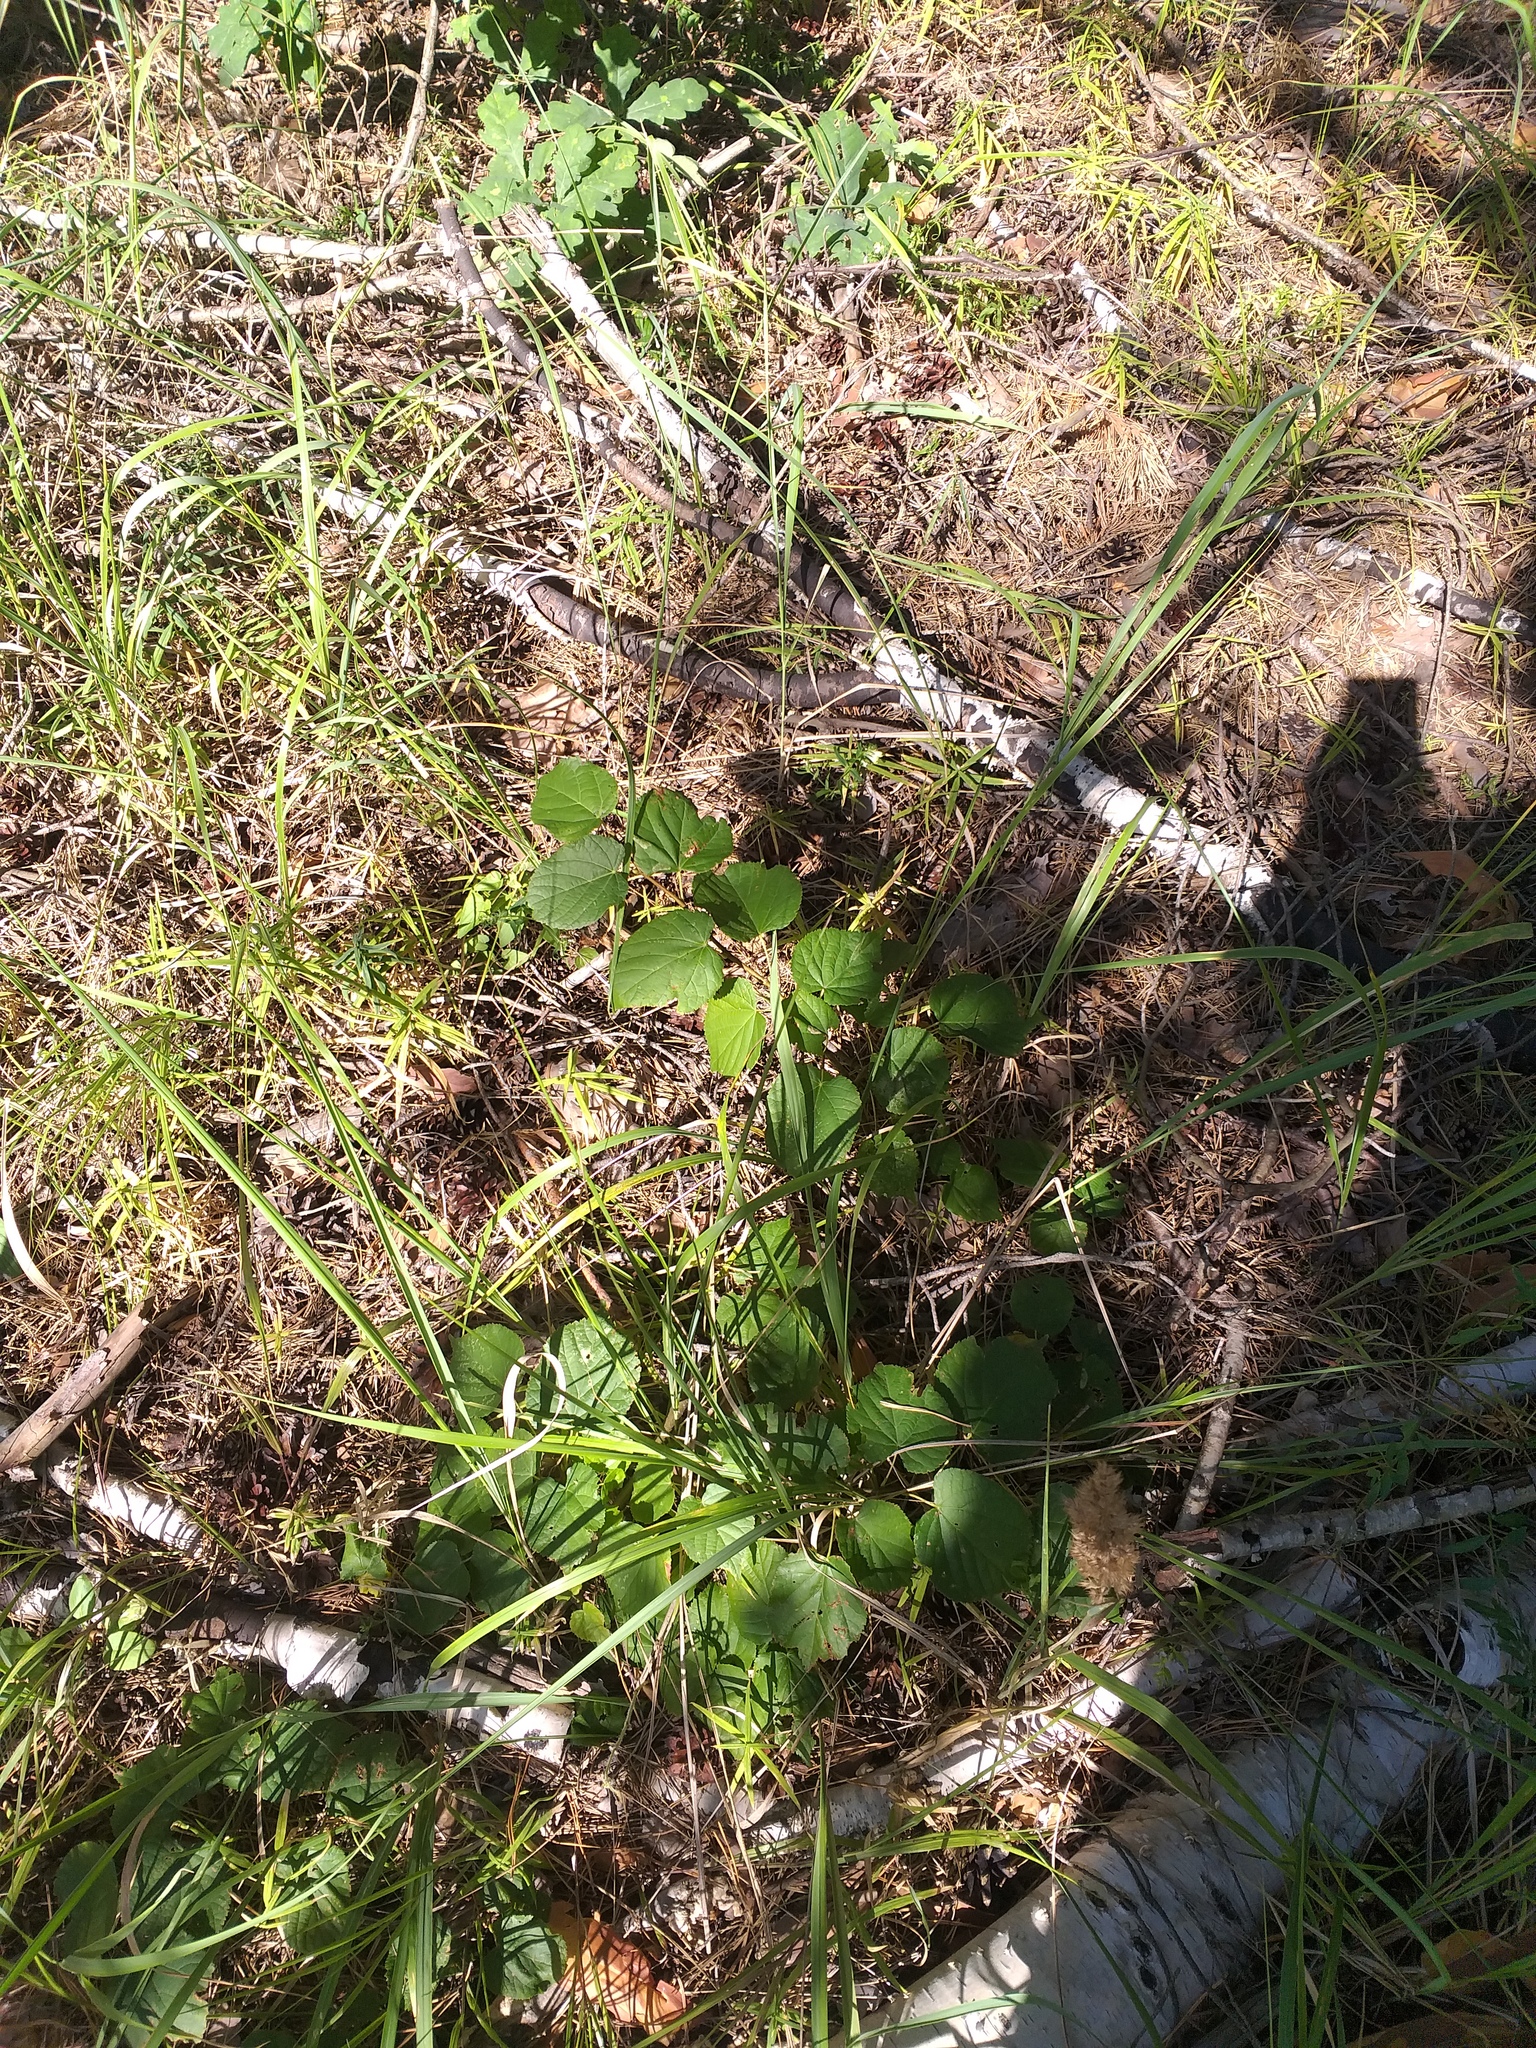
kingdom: Plantae
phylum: Tracheophyta
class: Magnoliopsida
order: Malvales
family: Malvaceae
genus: Tilia
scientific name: Tilia cordata
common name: Small-leaved lime
